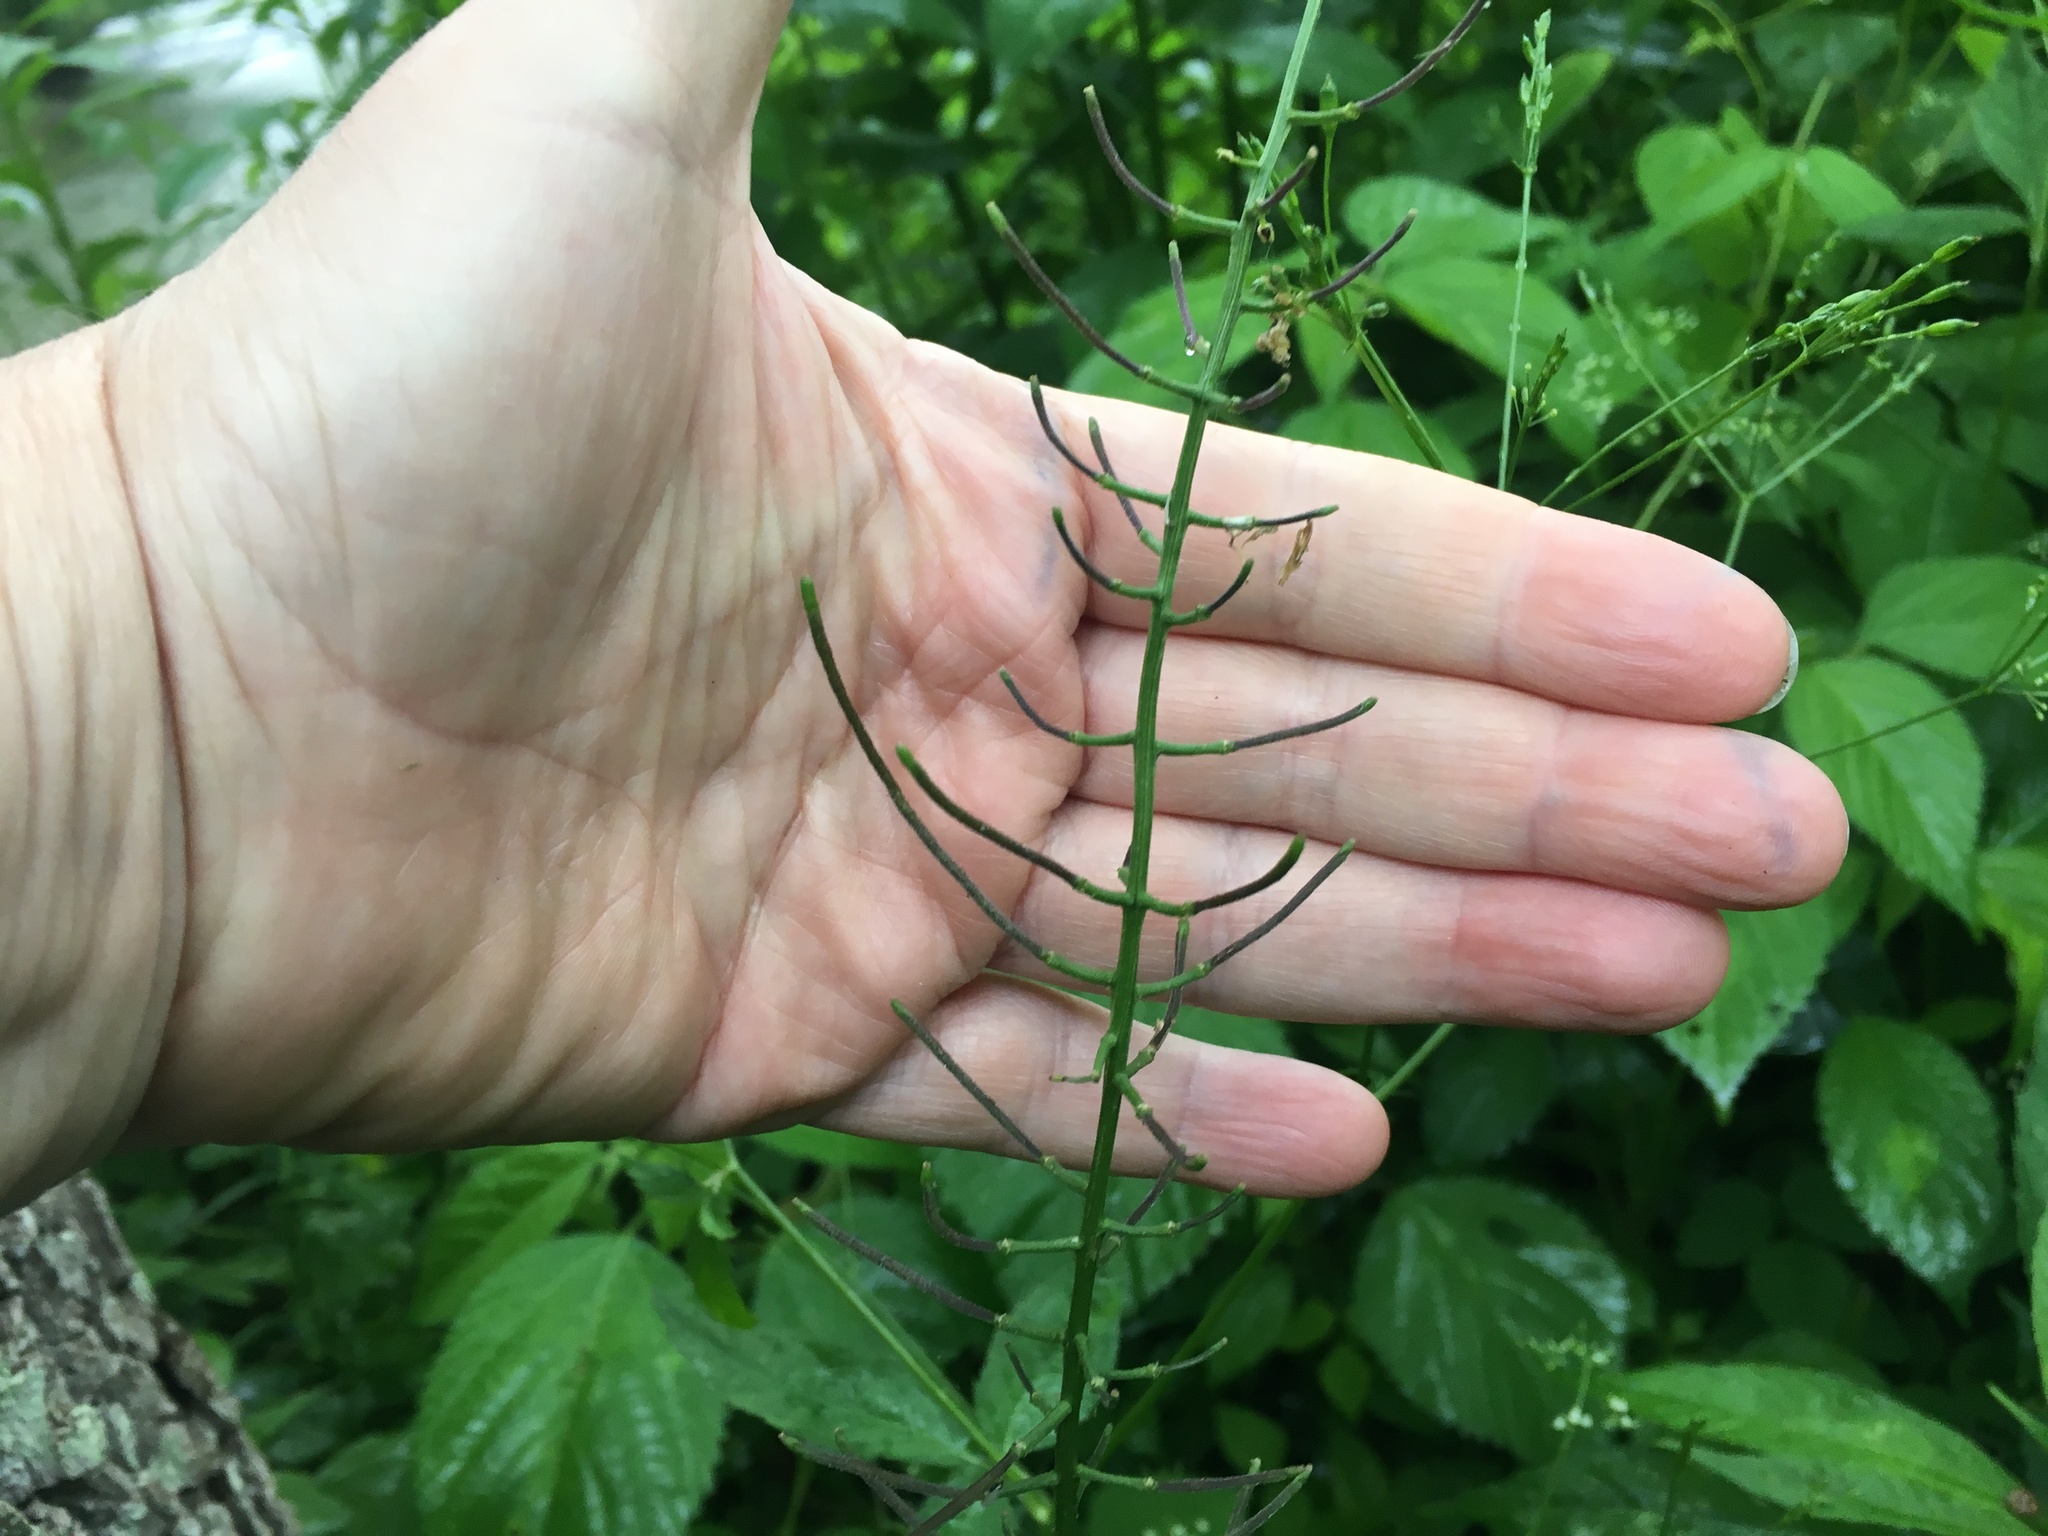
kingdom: Plantae
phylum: Tracheophyta
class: Magnoliopsida
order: Brassicales
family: Brassicaceae
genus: Iodanthus
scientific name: Iodanthus pinnatifidus
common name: Violet rocket
